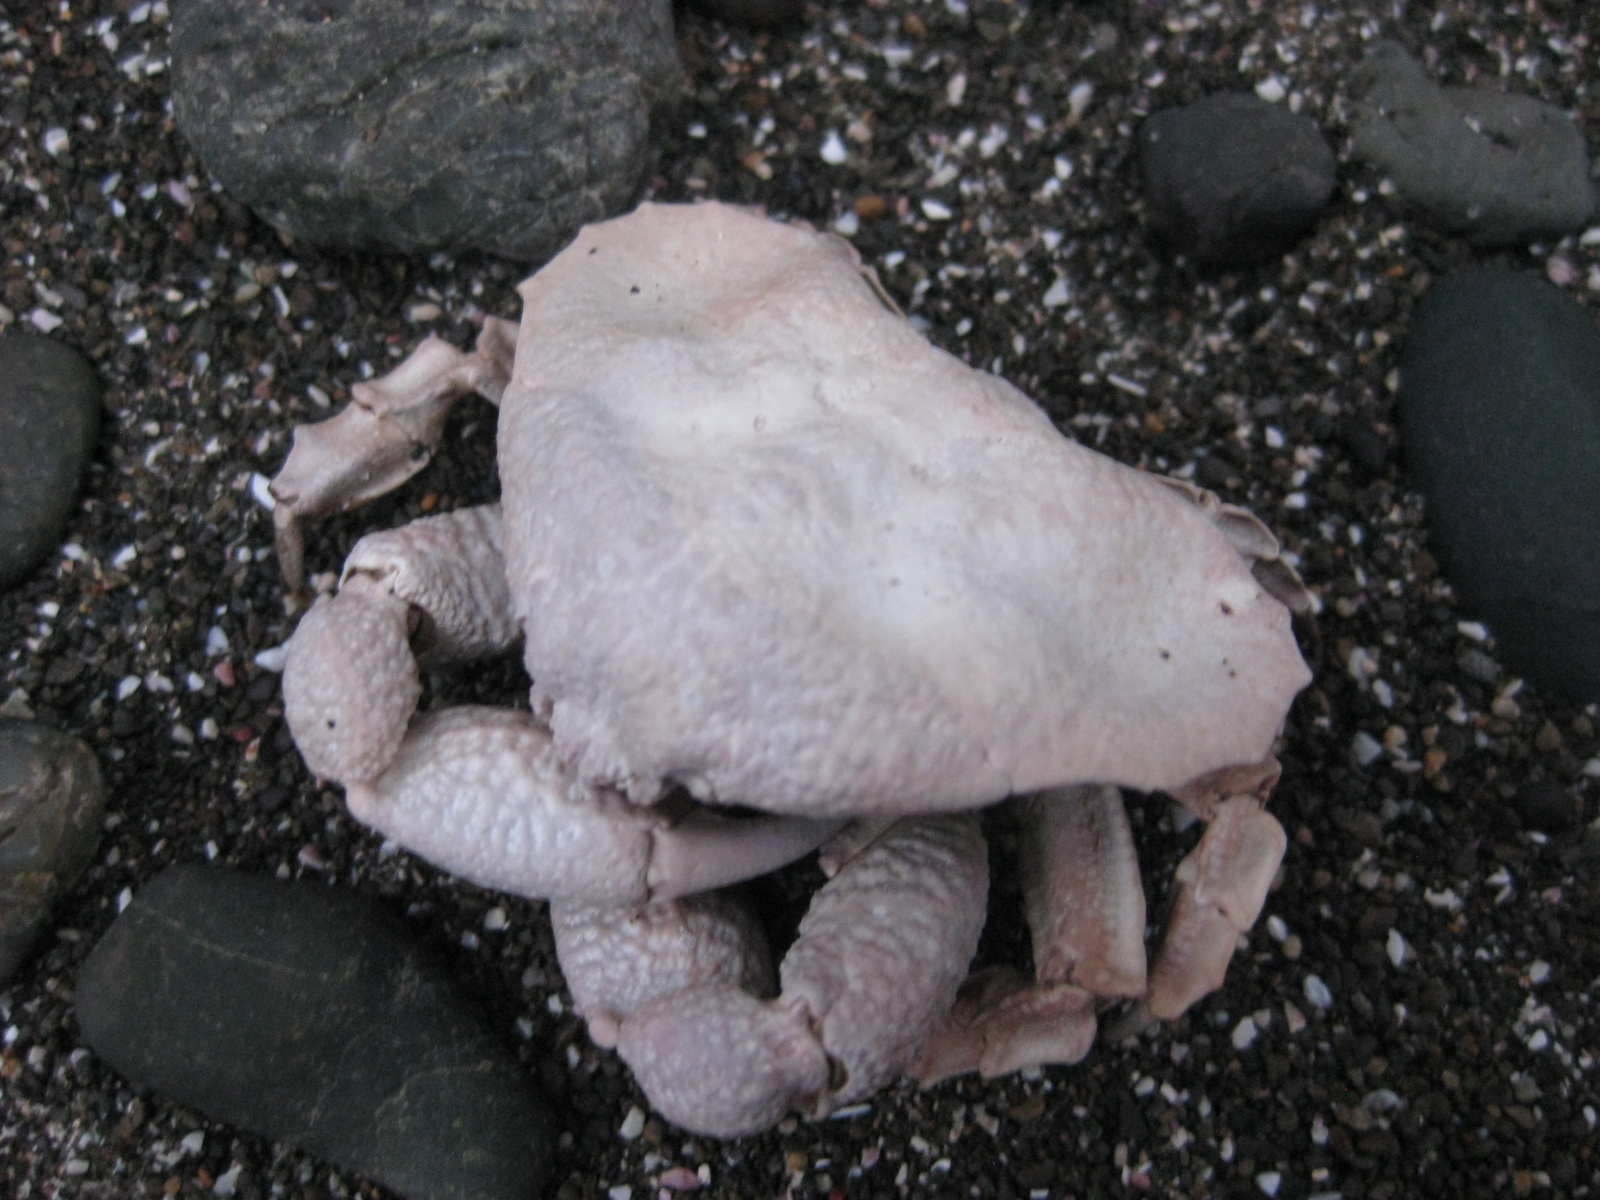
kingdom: Animalia
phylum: Arthropoda
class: Malacostraca
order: Decapoda
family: Majidae
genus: Eurynolambrus
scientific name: Eurynolambrus australis
